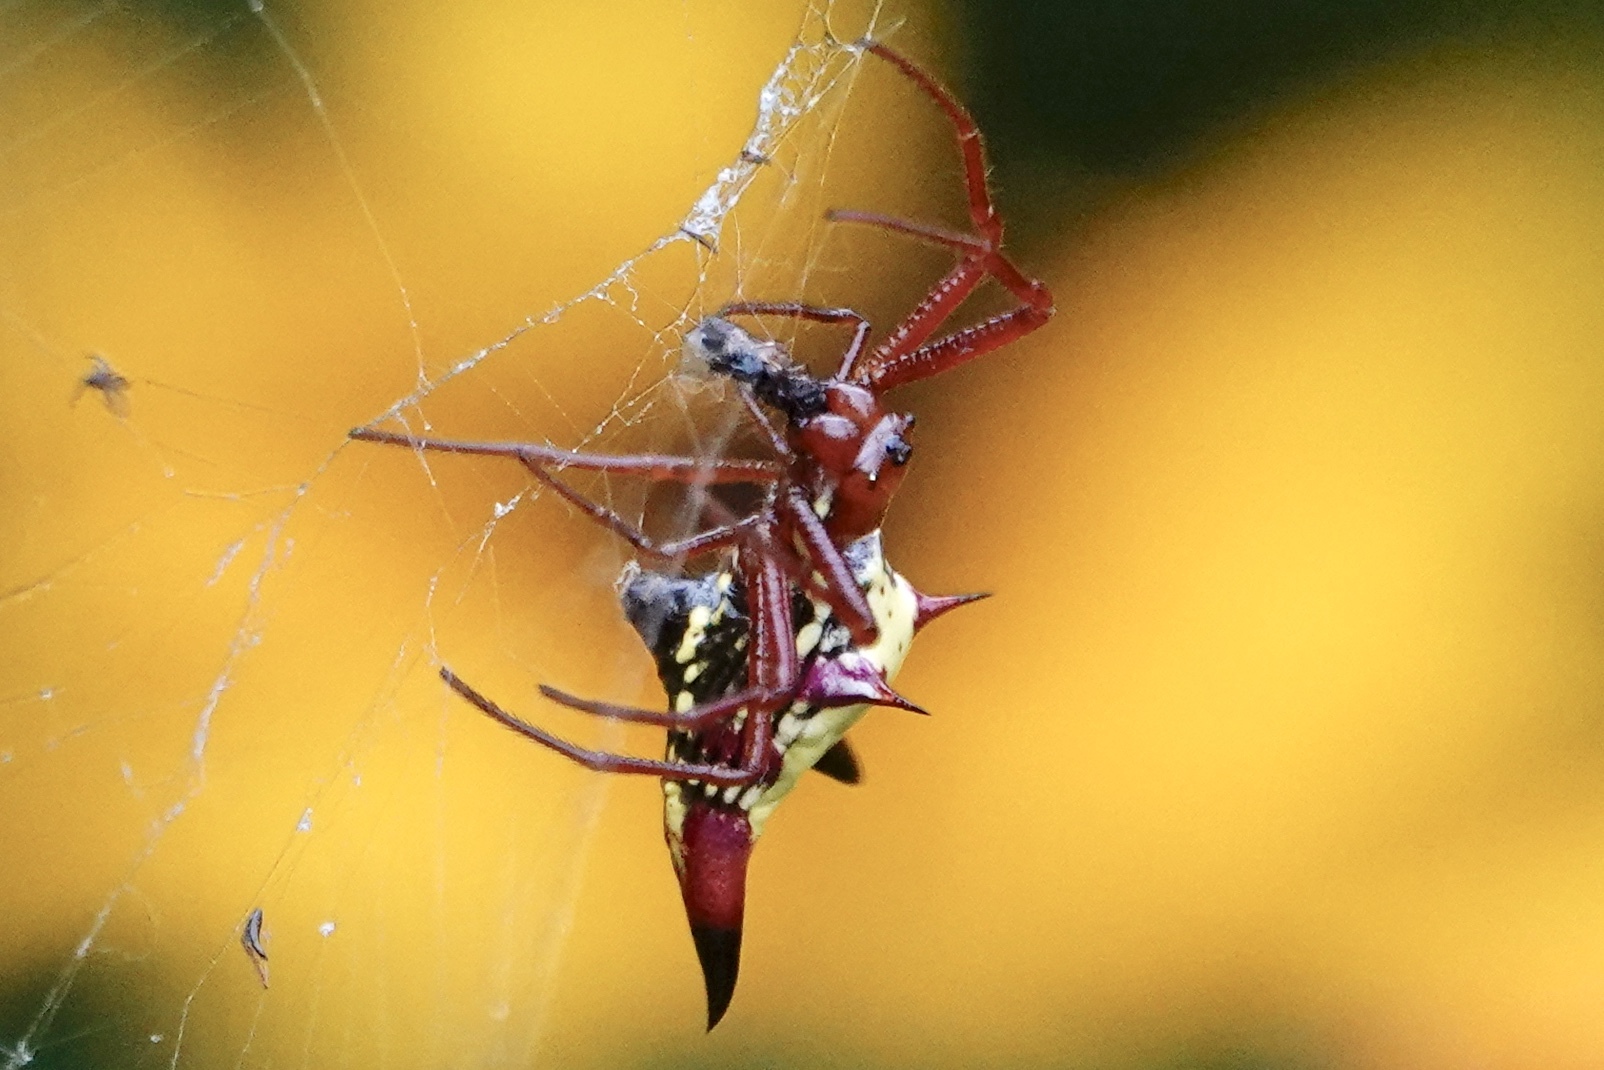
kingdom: Animalia
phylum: Arthropoda
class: Arachnida
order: Araneae
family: Araneidae
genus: Micrathena
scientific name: Micrathena sagittata
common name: Orb weavers
